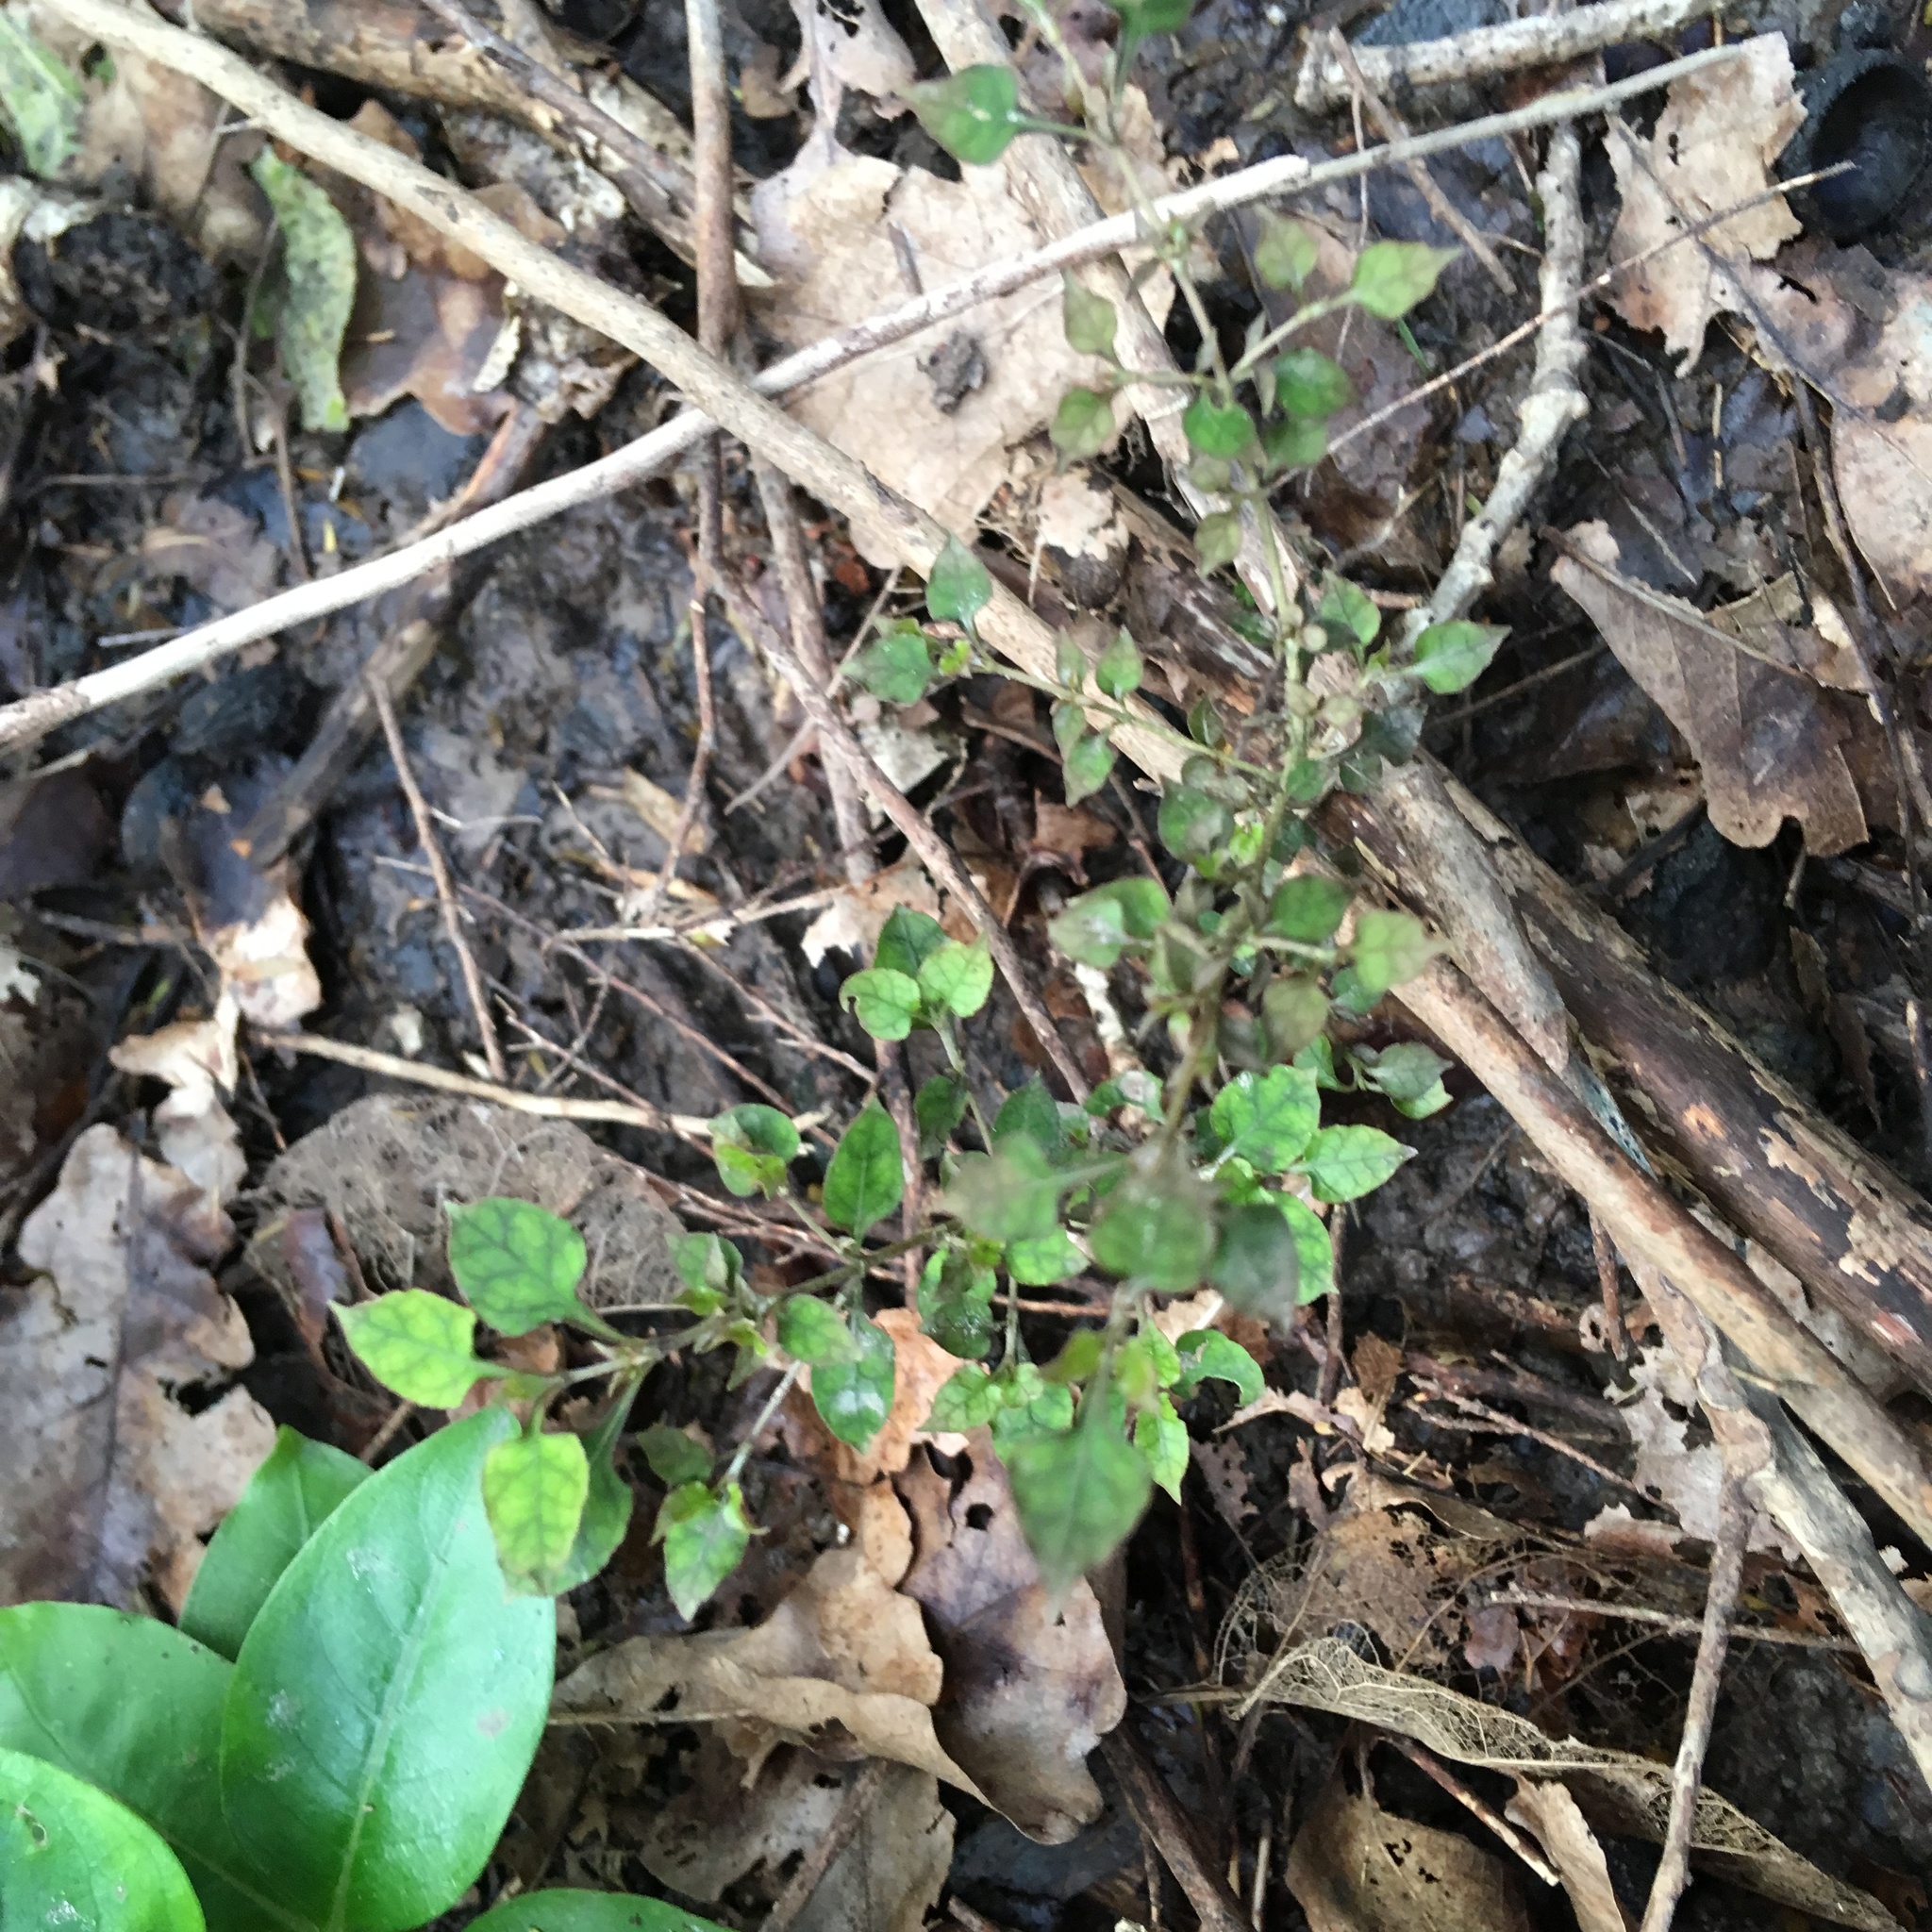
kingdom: Plantae
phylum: Tracheophyta
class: Magnoliopsida
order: Gentianales
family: Rubiaceae
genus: Coprosma
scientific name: Coprosma areolata
